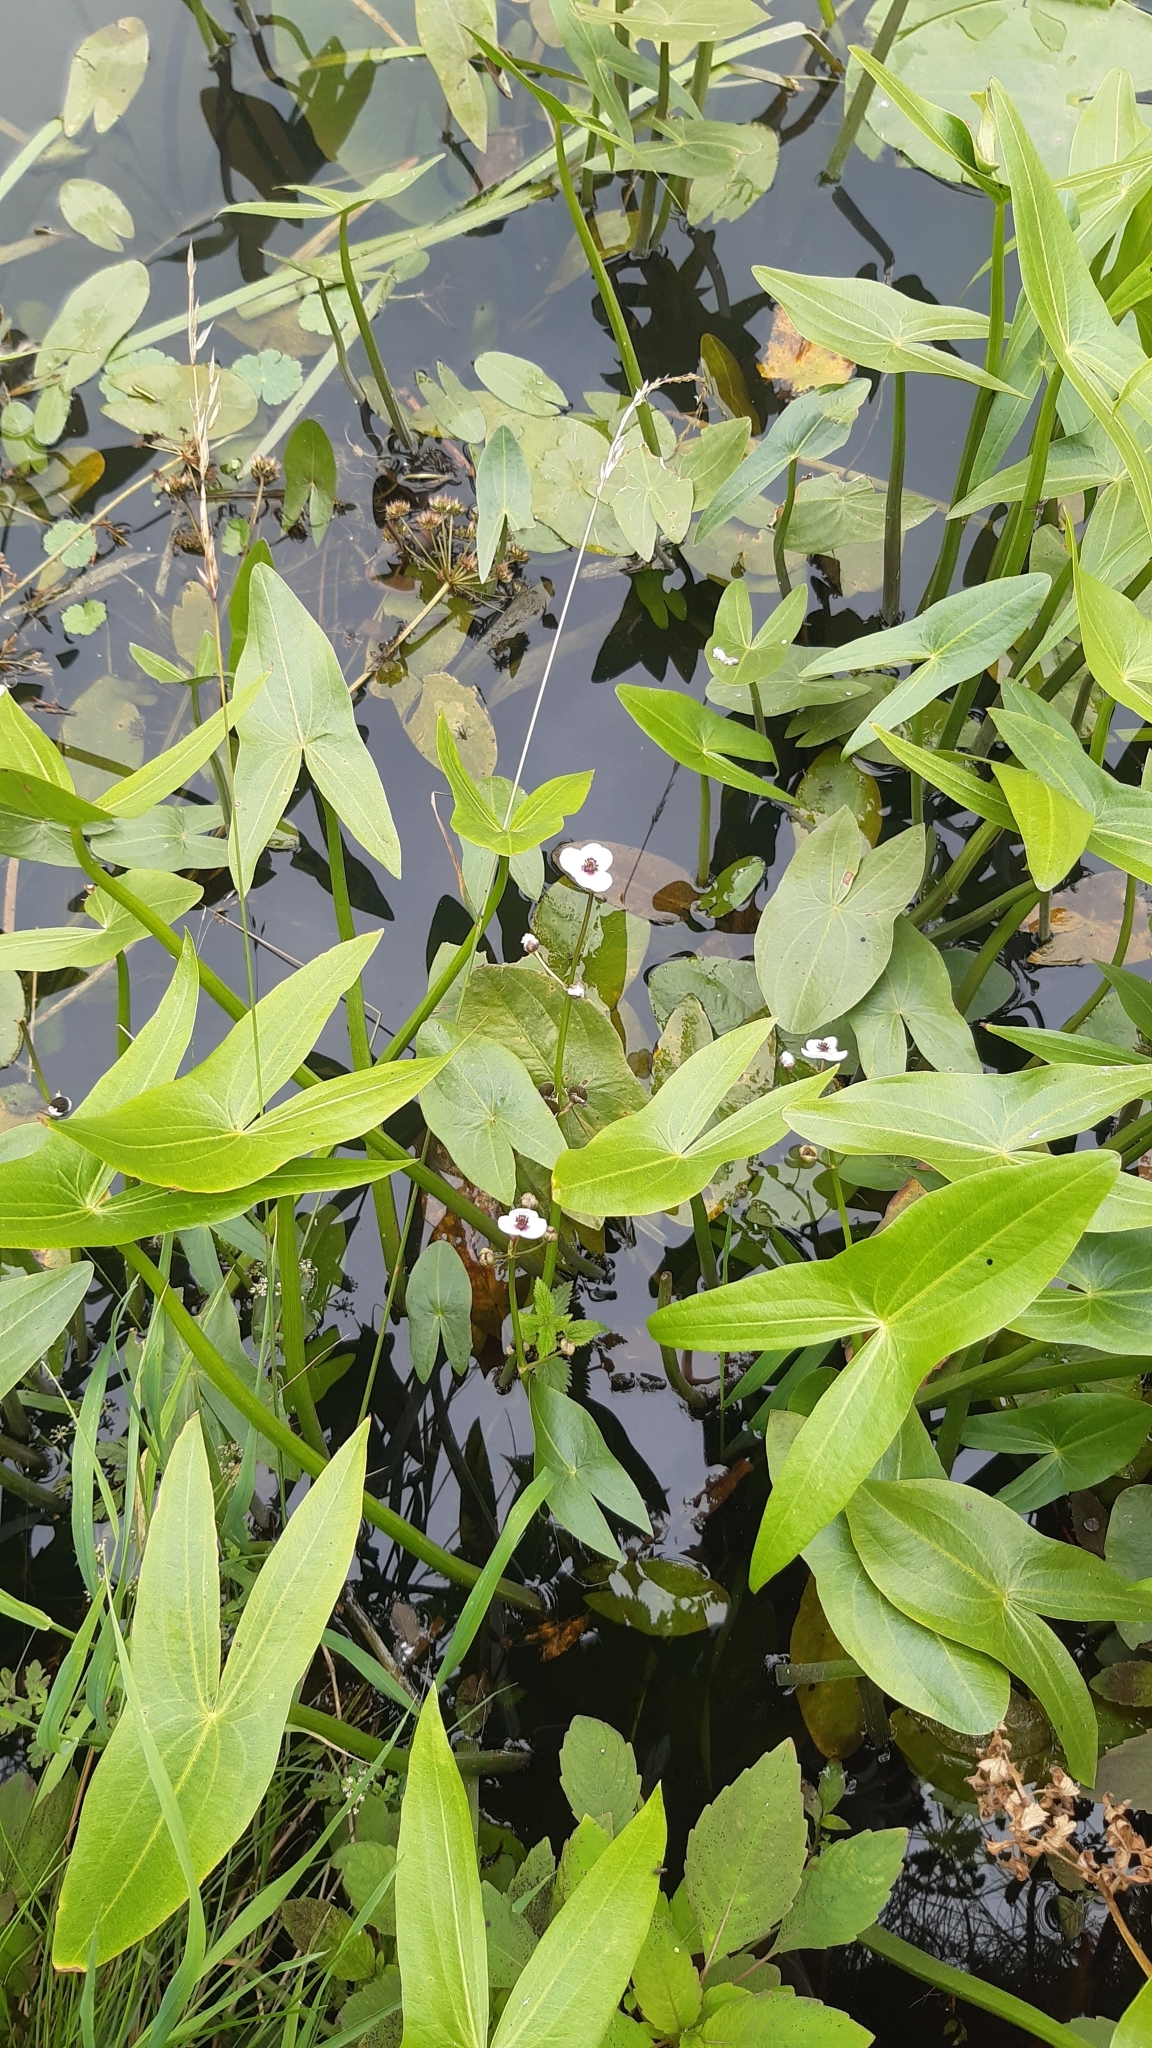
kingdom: Plantae
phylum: Tracheophyta
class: Liliopsida
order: Alismatales
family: Alismataceae
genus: Sagittaria
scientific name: Sagittaria sagittifolia
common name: Arrowhead
